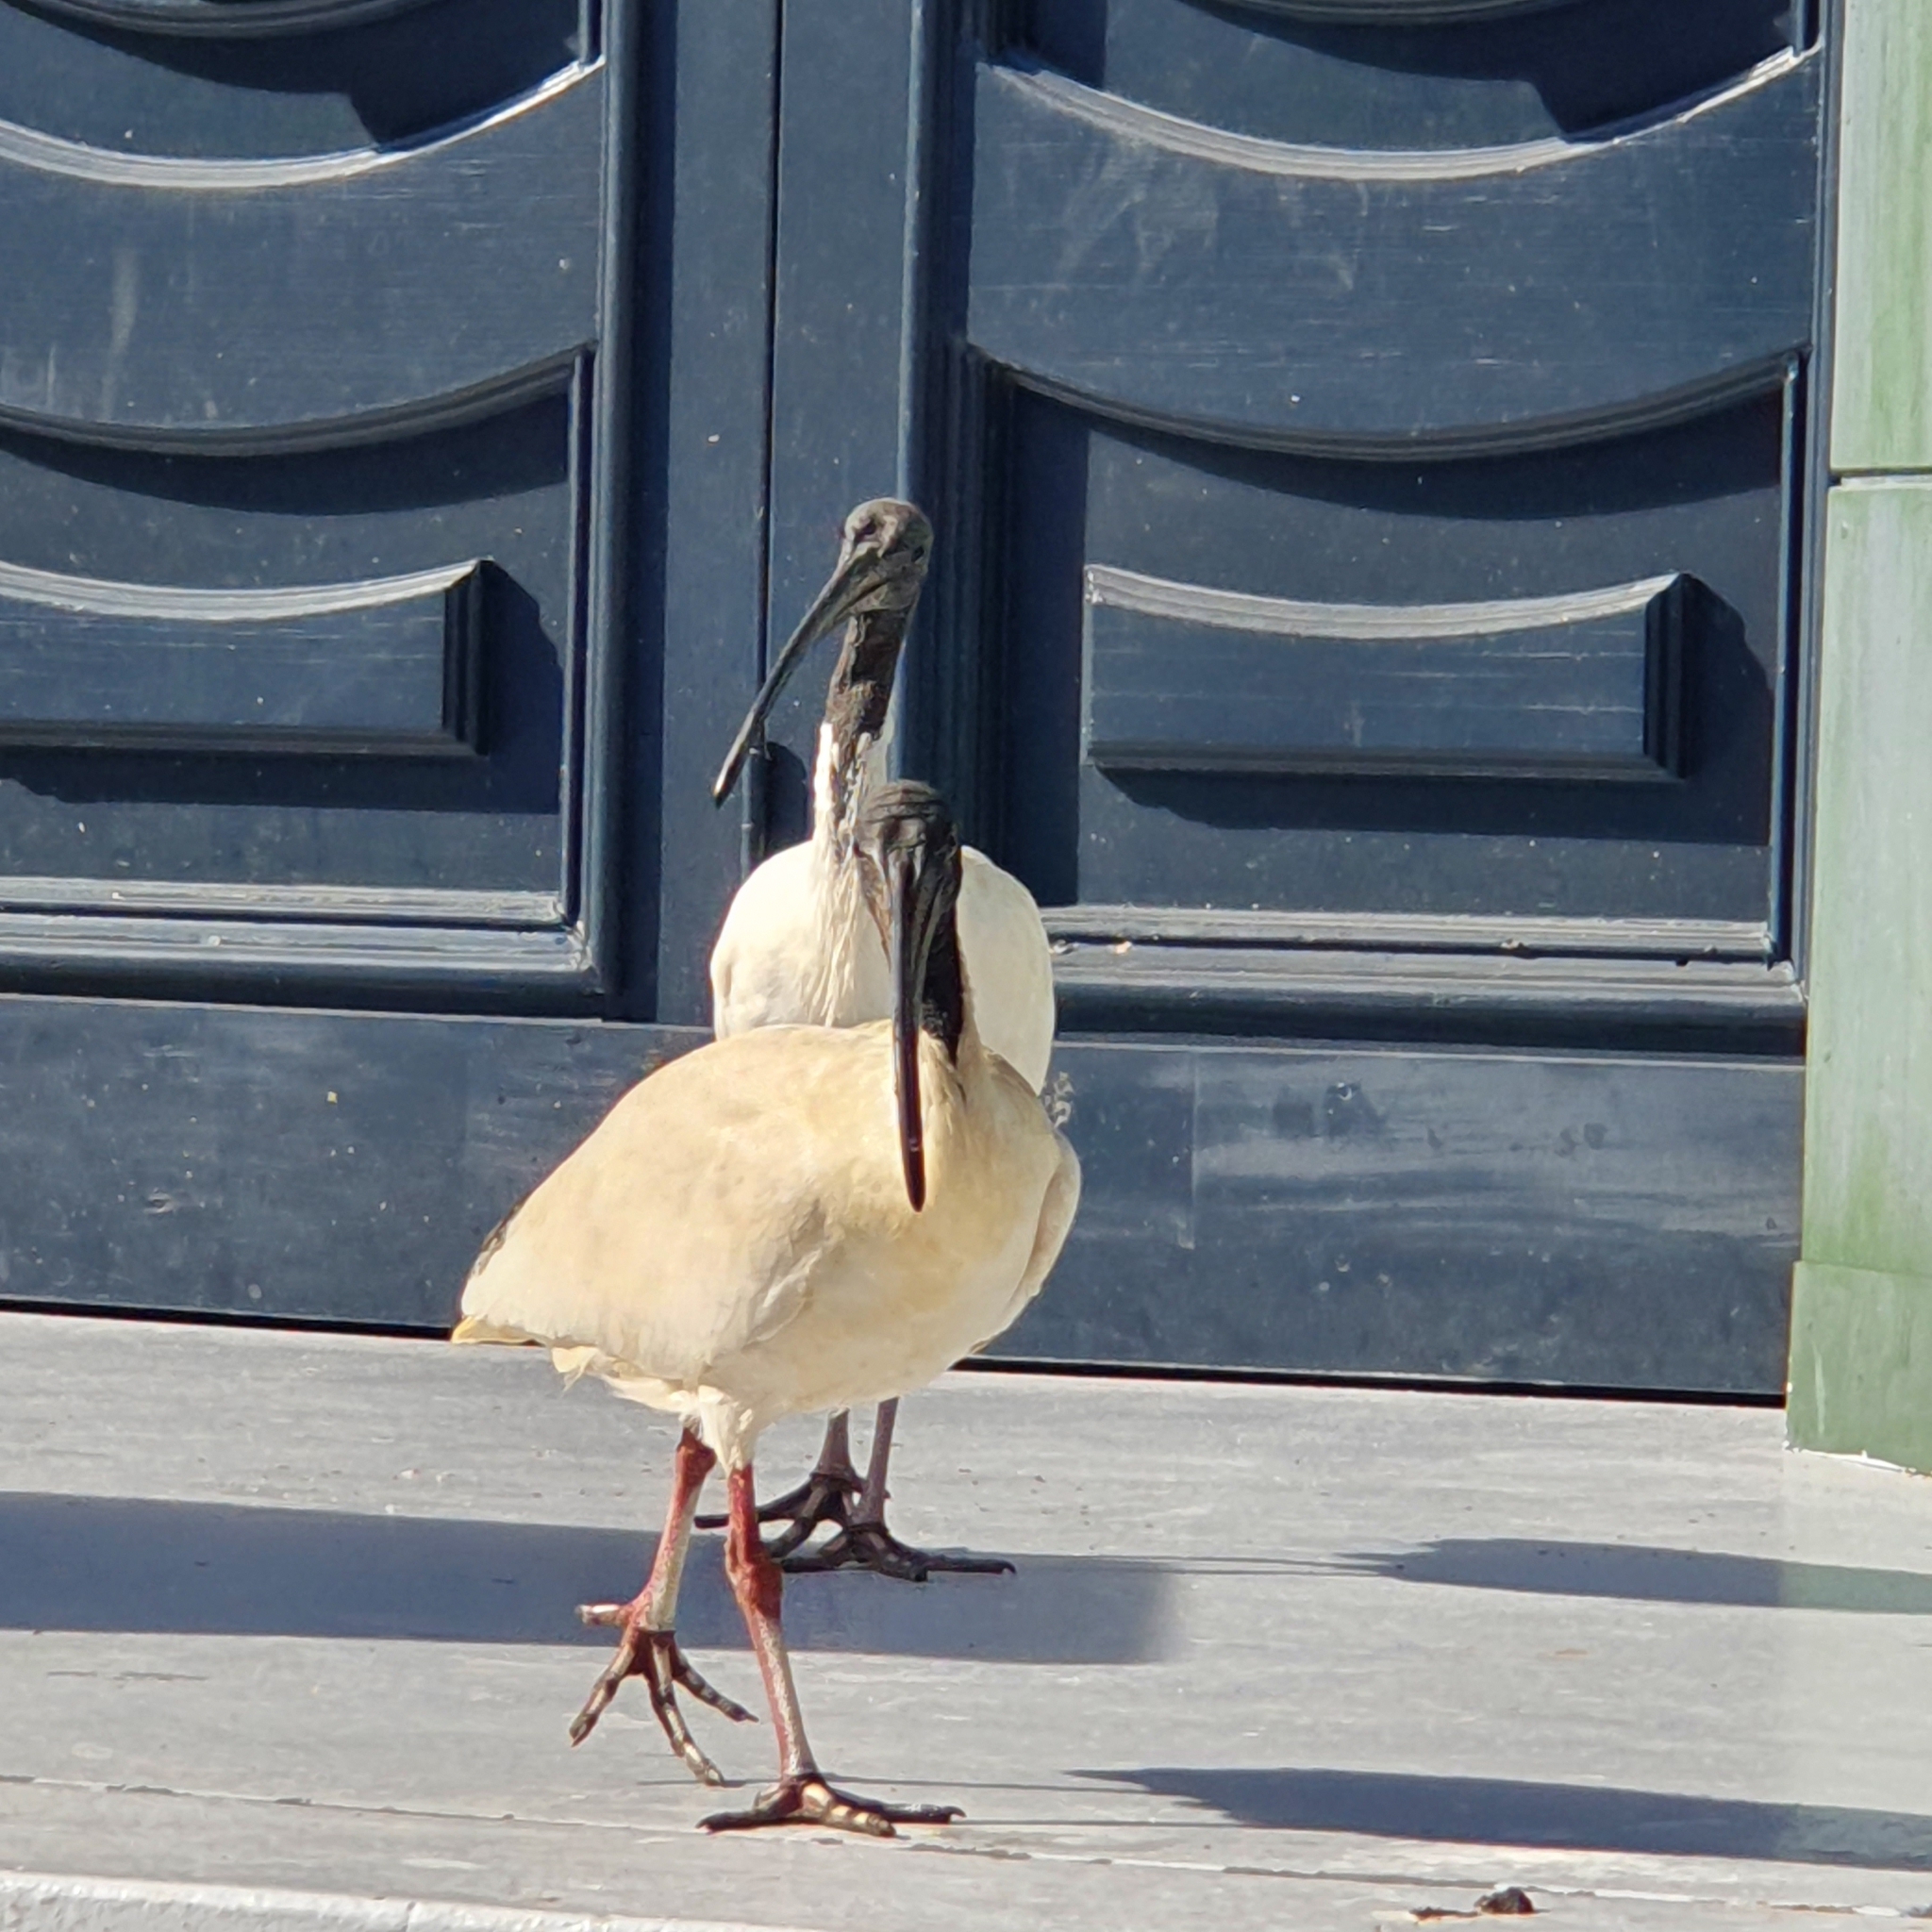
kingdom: Animalia
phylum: Chordata
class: Aves
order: Pelecaniformes
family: Threskiornithidae
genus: Threskiornis
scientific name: Threskiornis molucca
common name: Australian white ibis
